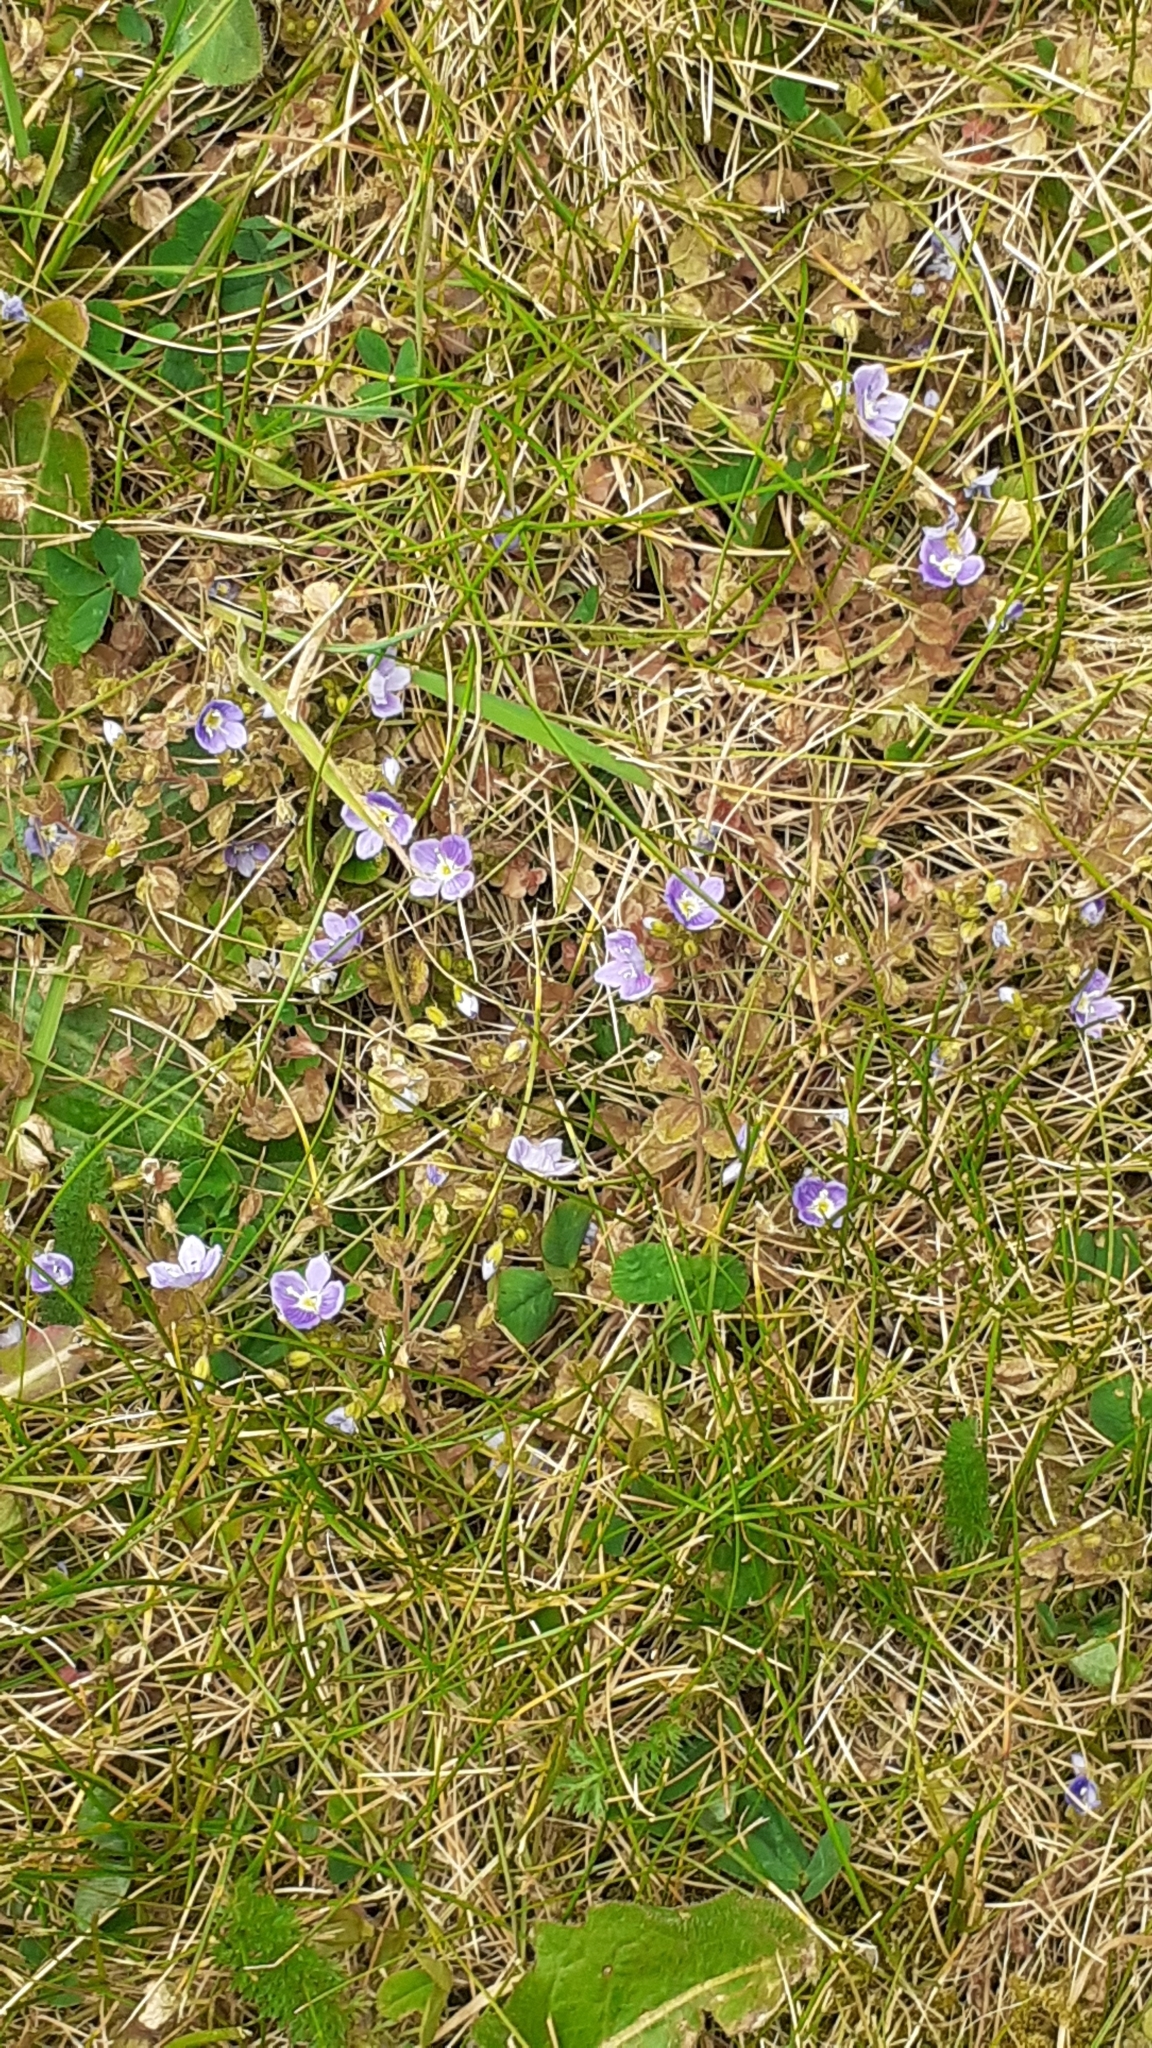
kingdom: Plantae
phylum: Tracheophyta
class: Magnoliopsida
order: Lamiales
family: Plantaginaceae
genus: Veronica
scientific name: Veronica filiformis
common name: Slender speedwell
